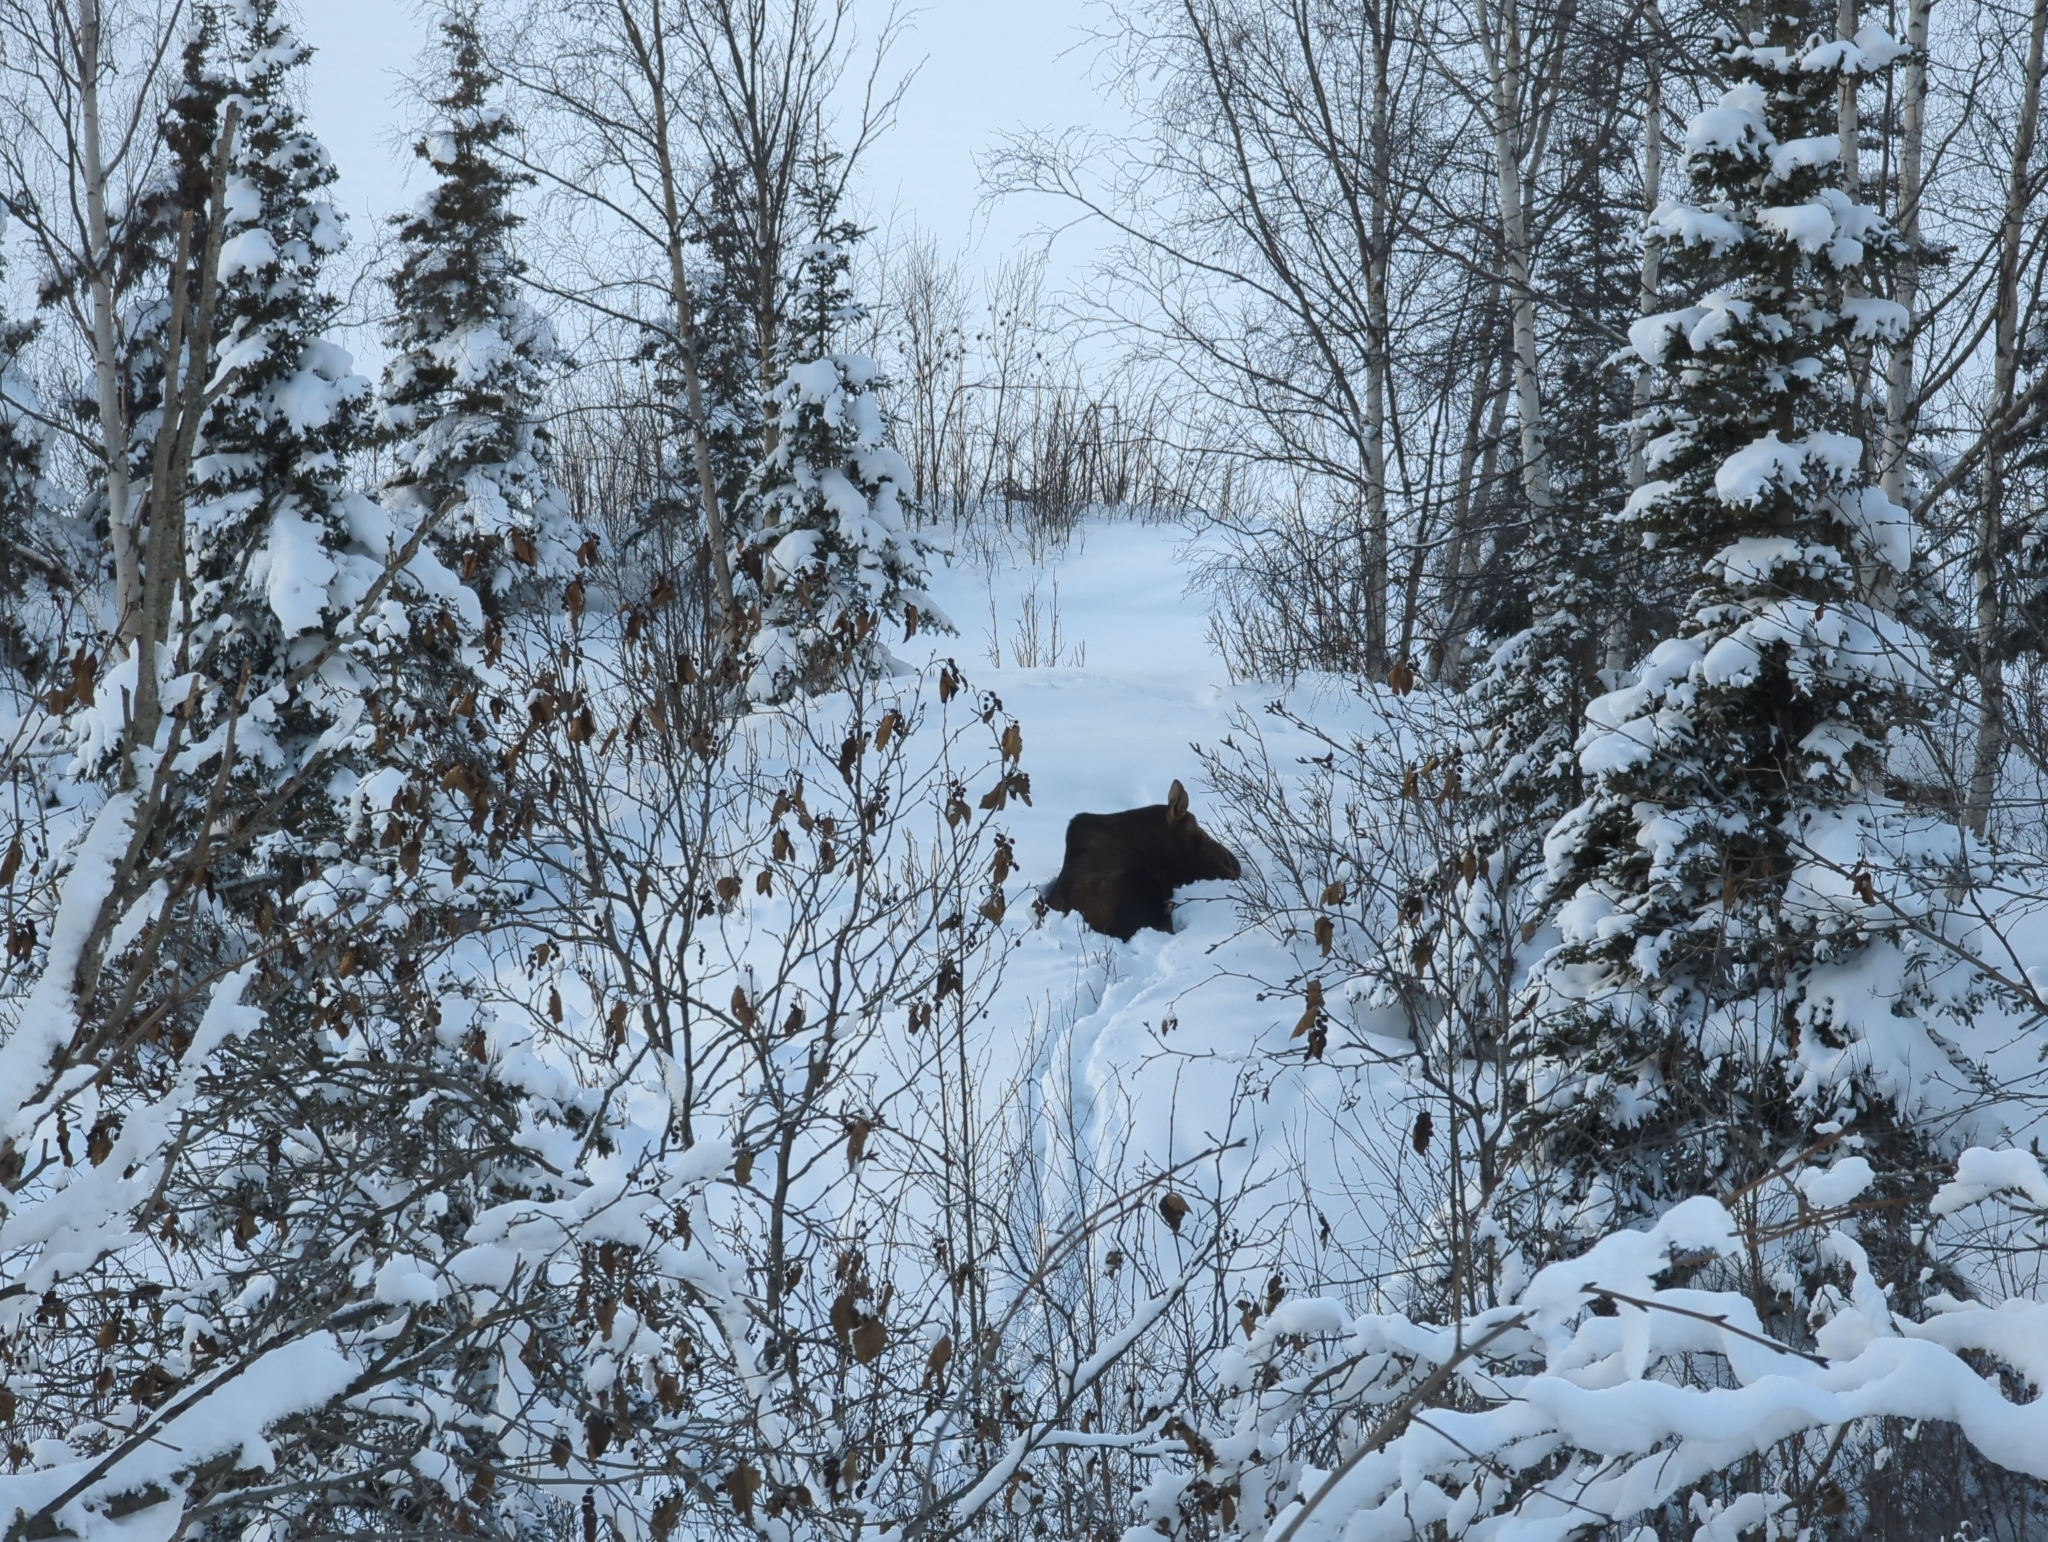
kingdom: Animalia
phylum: Chordata
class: Mammalia
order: Artiodactyla
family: Cervidae
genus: Alces
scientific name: Alces alces
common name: Moose
